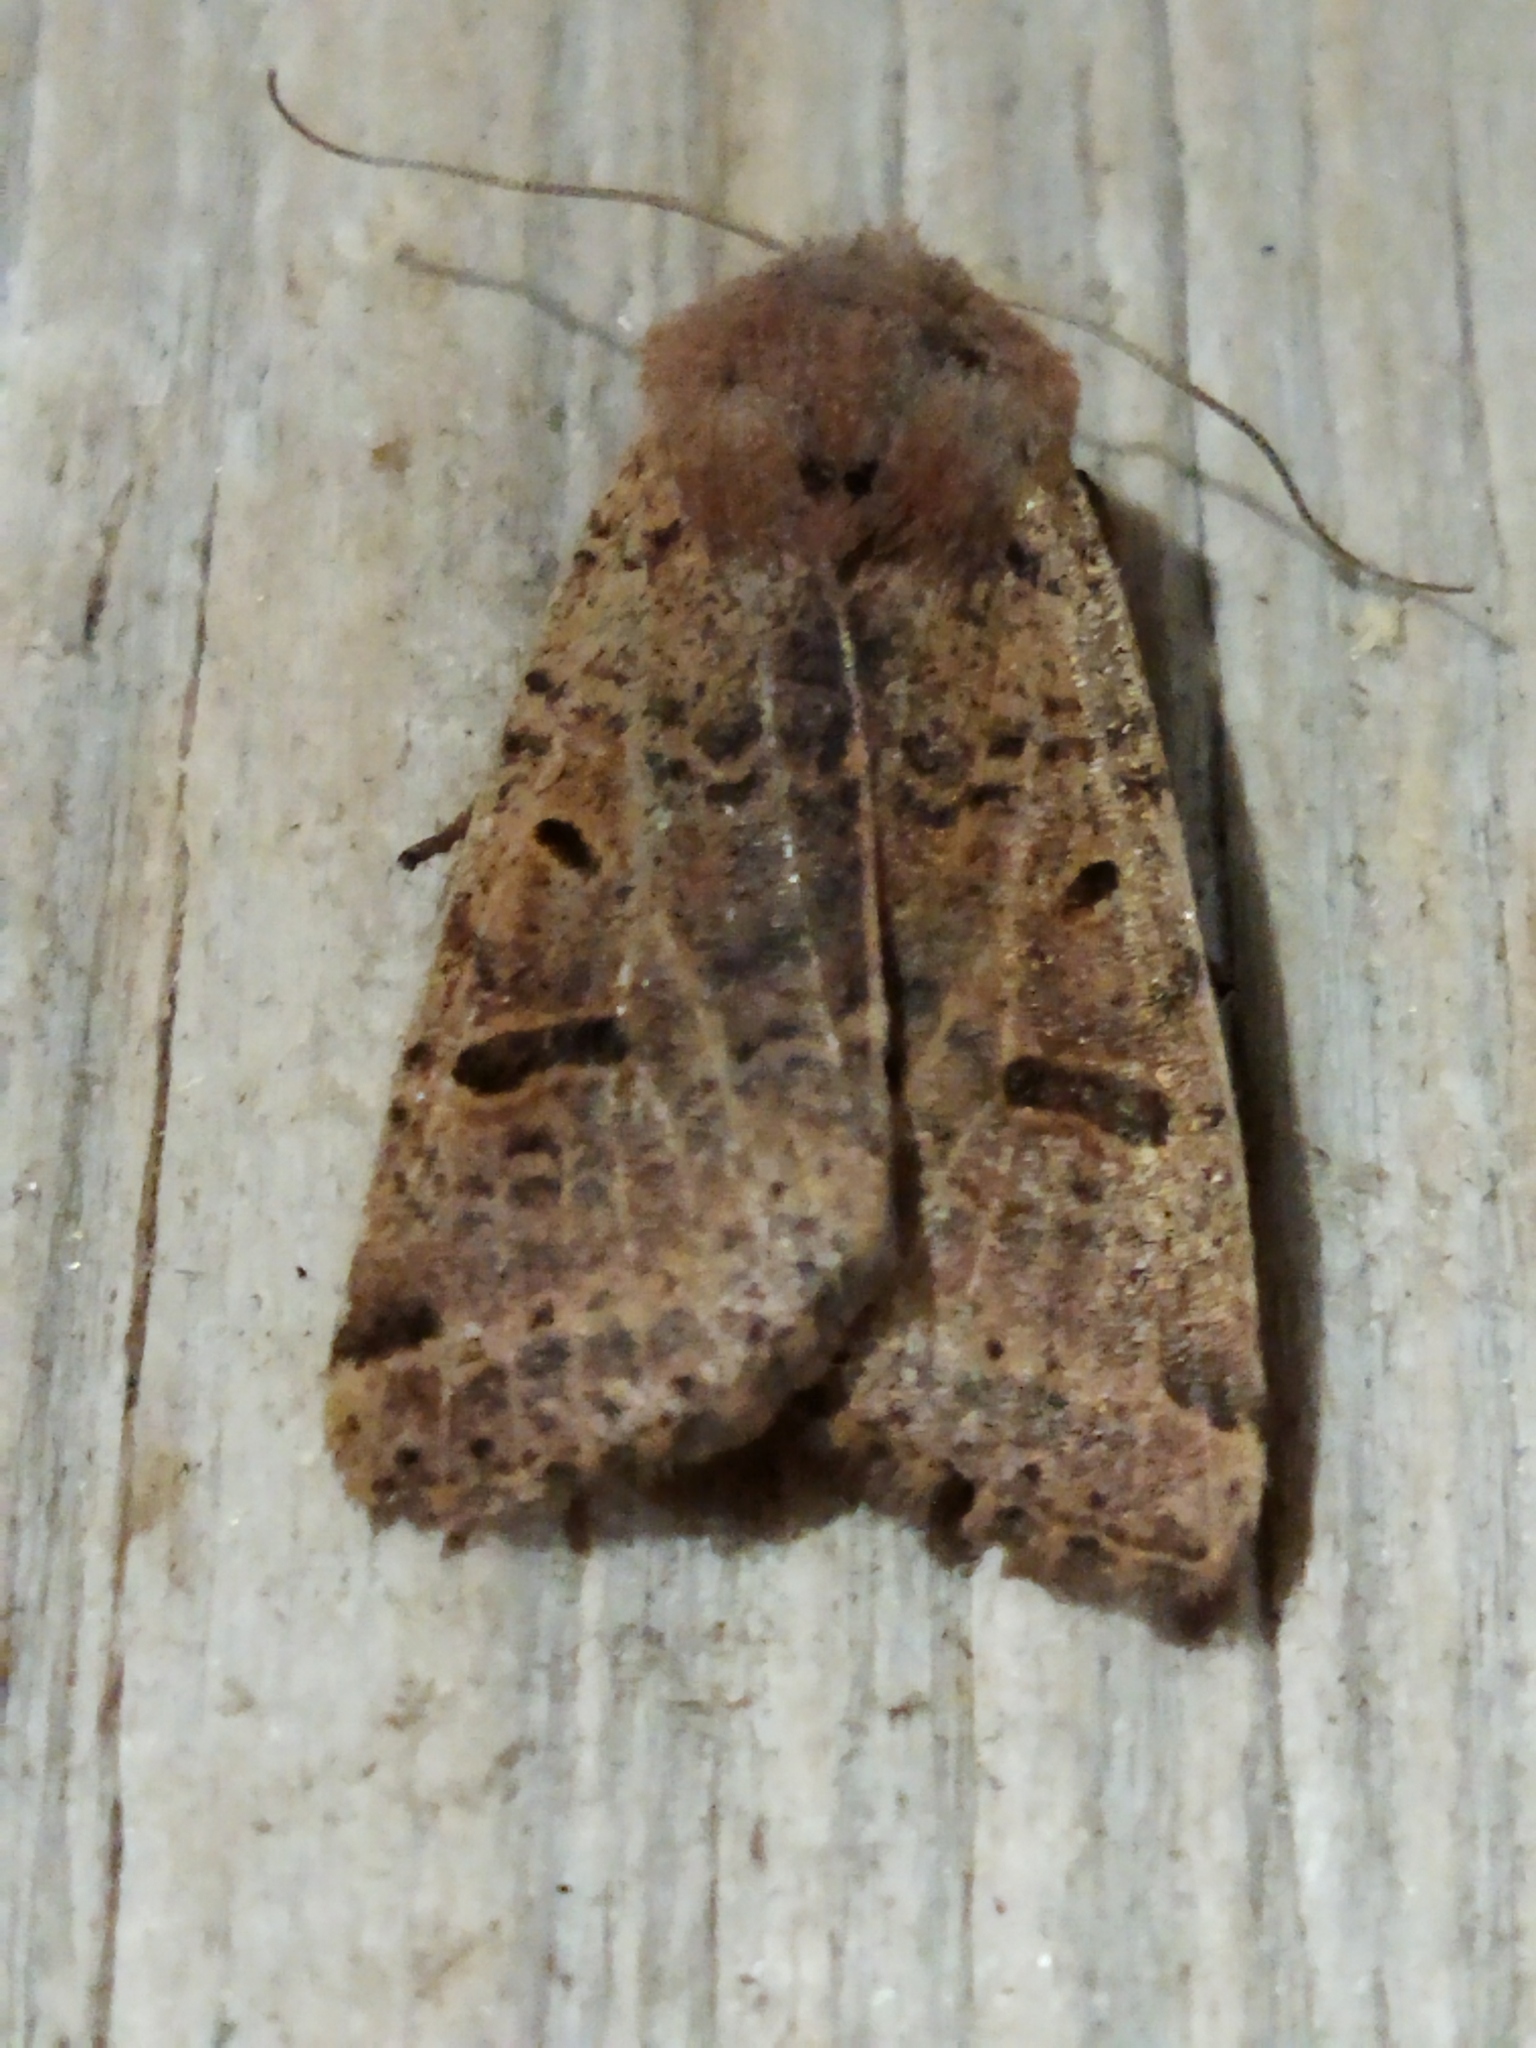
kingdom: Animalia
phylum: Arthropoda
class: Insecta
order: Lepidoptera
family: Noctuidae
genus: Agrochola
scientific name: Agrochola lychnidis
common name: Beaded chestnut
